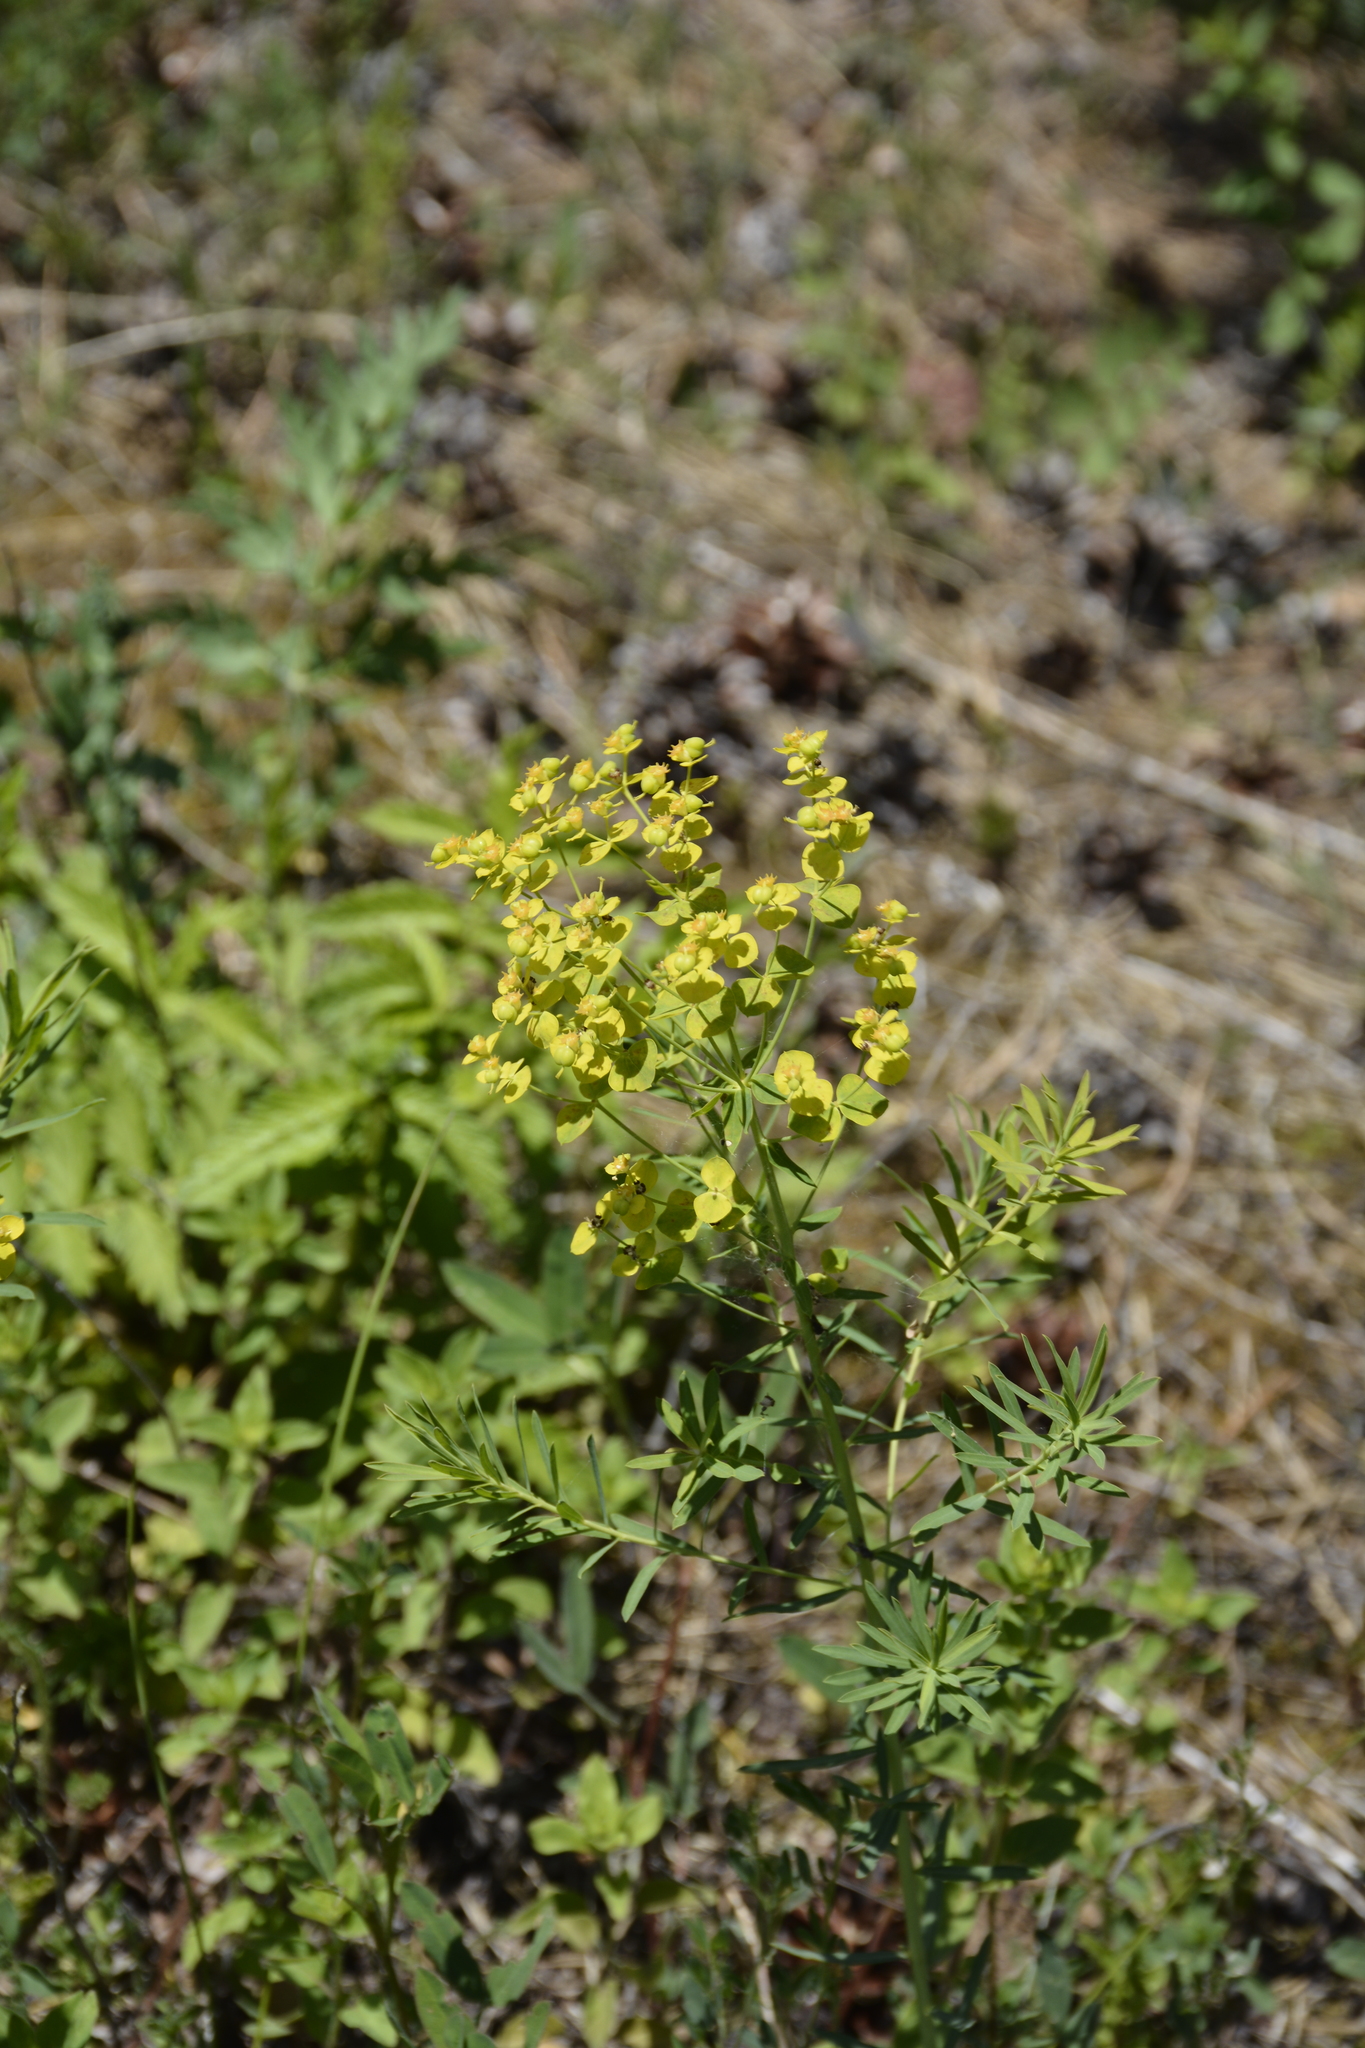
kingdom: Plantae
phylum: Tracheophyta
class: Magnoliopsida
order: Malpighiales
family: Euphorbiaceae
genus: Euphorbia
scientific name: Euphorbia virgata
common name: Leafy spurge
